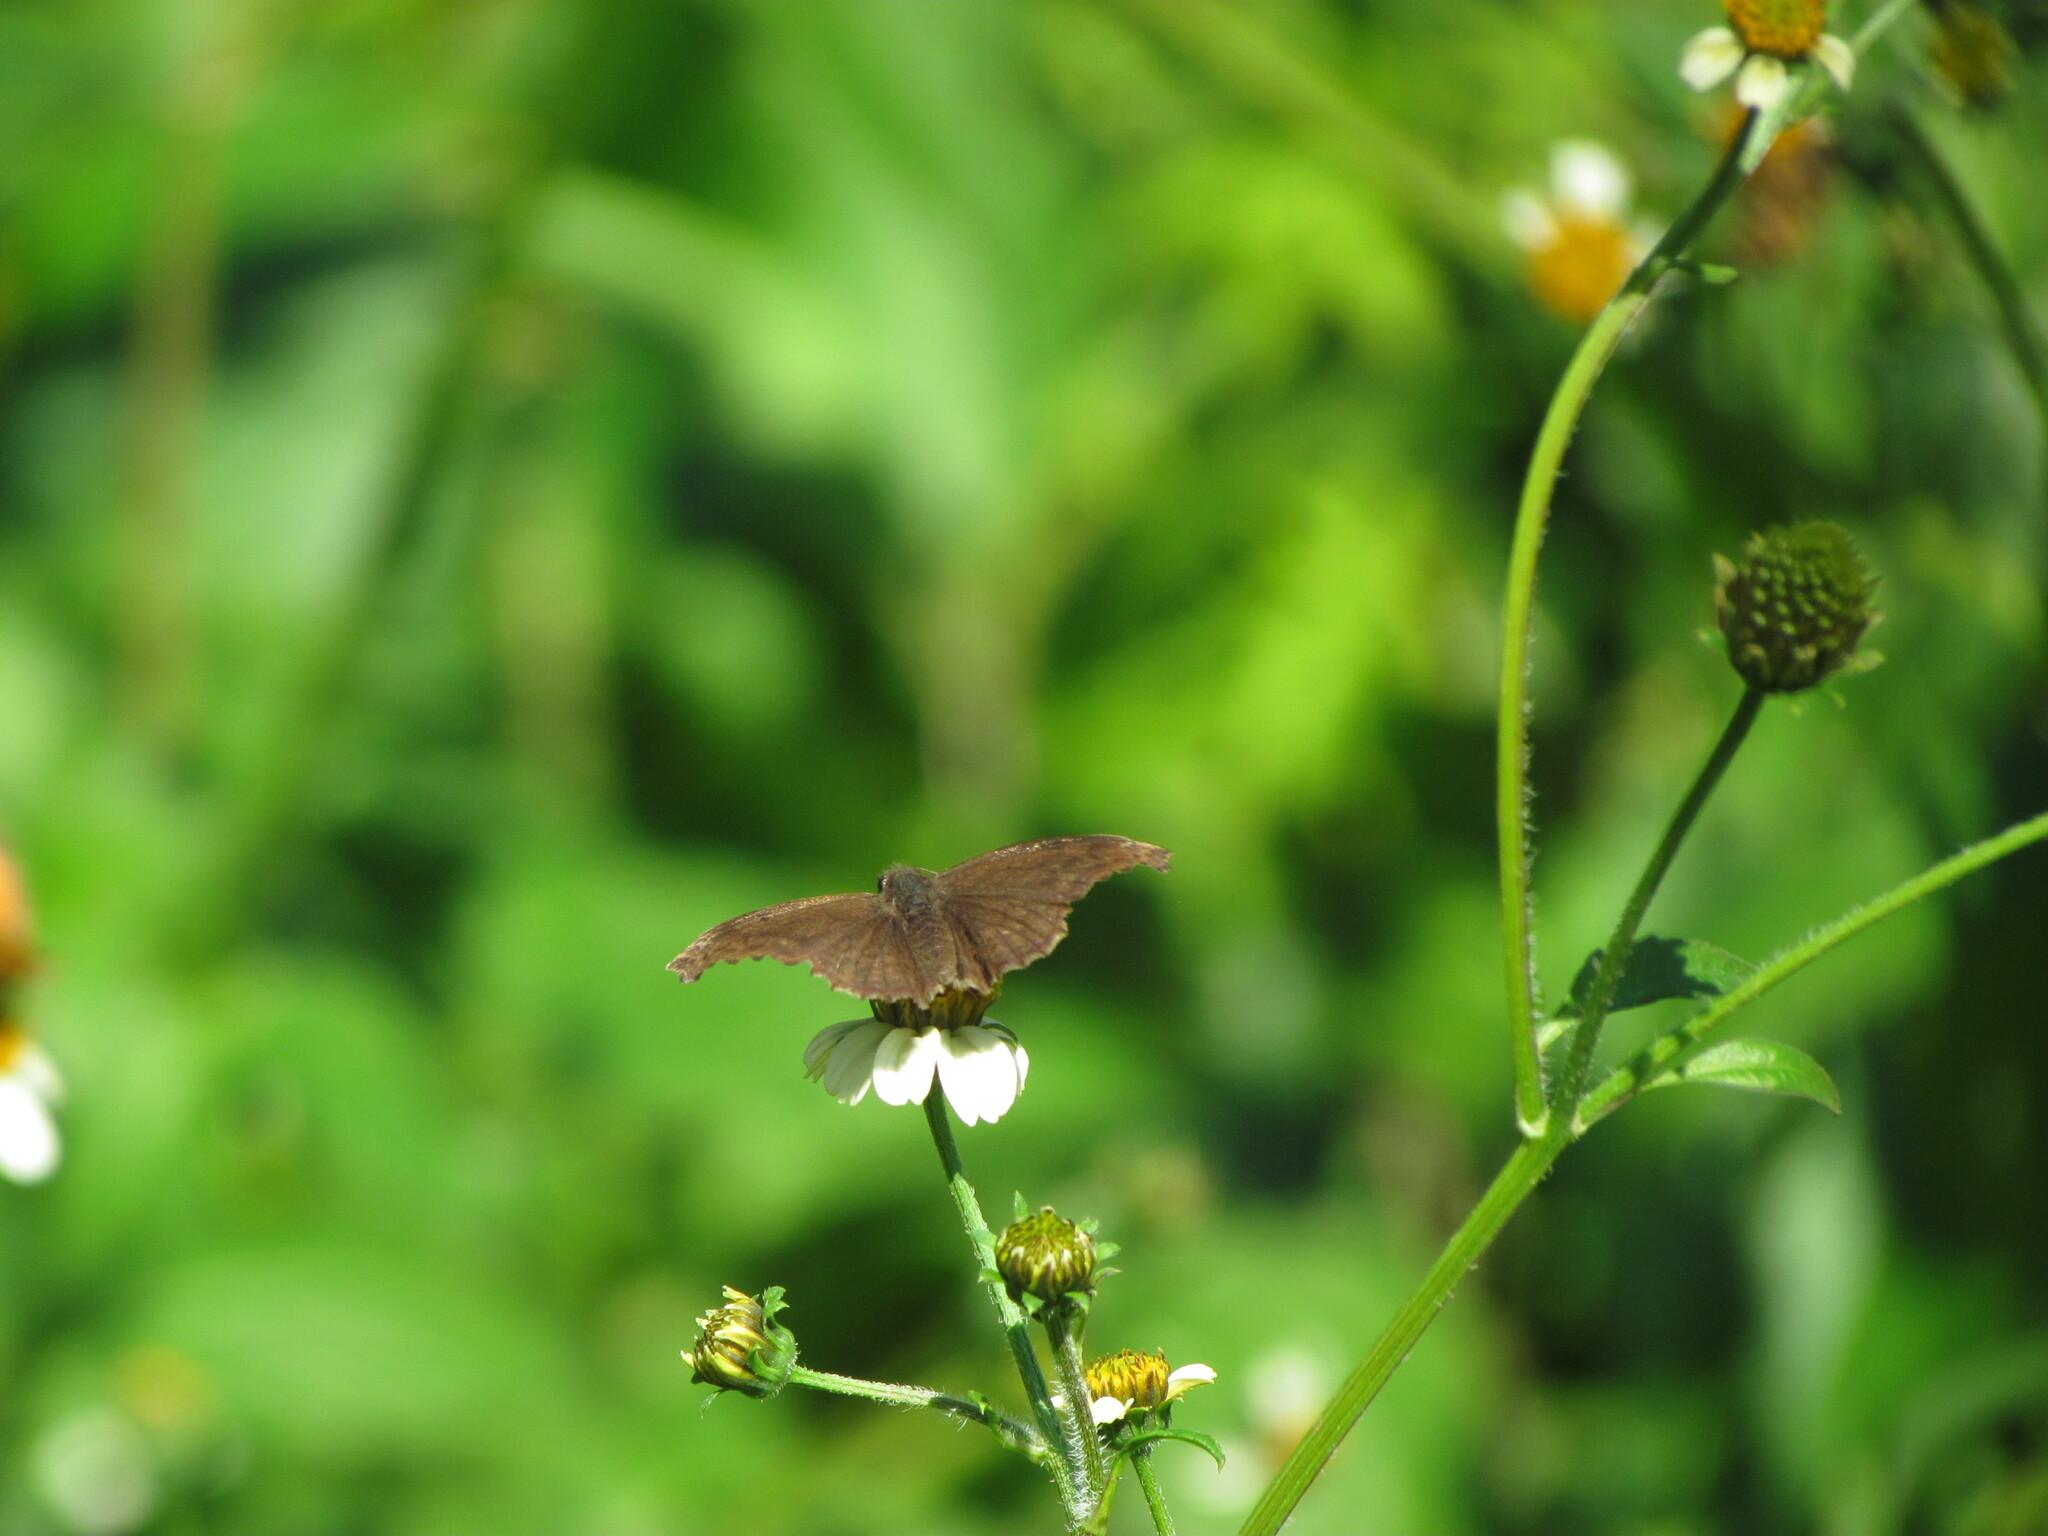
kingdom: Animalia
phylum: Arthropoda
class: Insecta
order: Lepidoptera
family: Hesperiidae
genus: Anisochoria
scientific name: Anisochoria sublimbata
